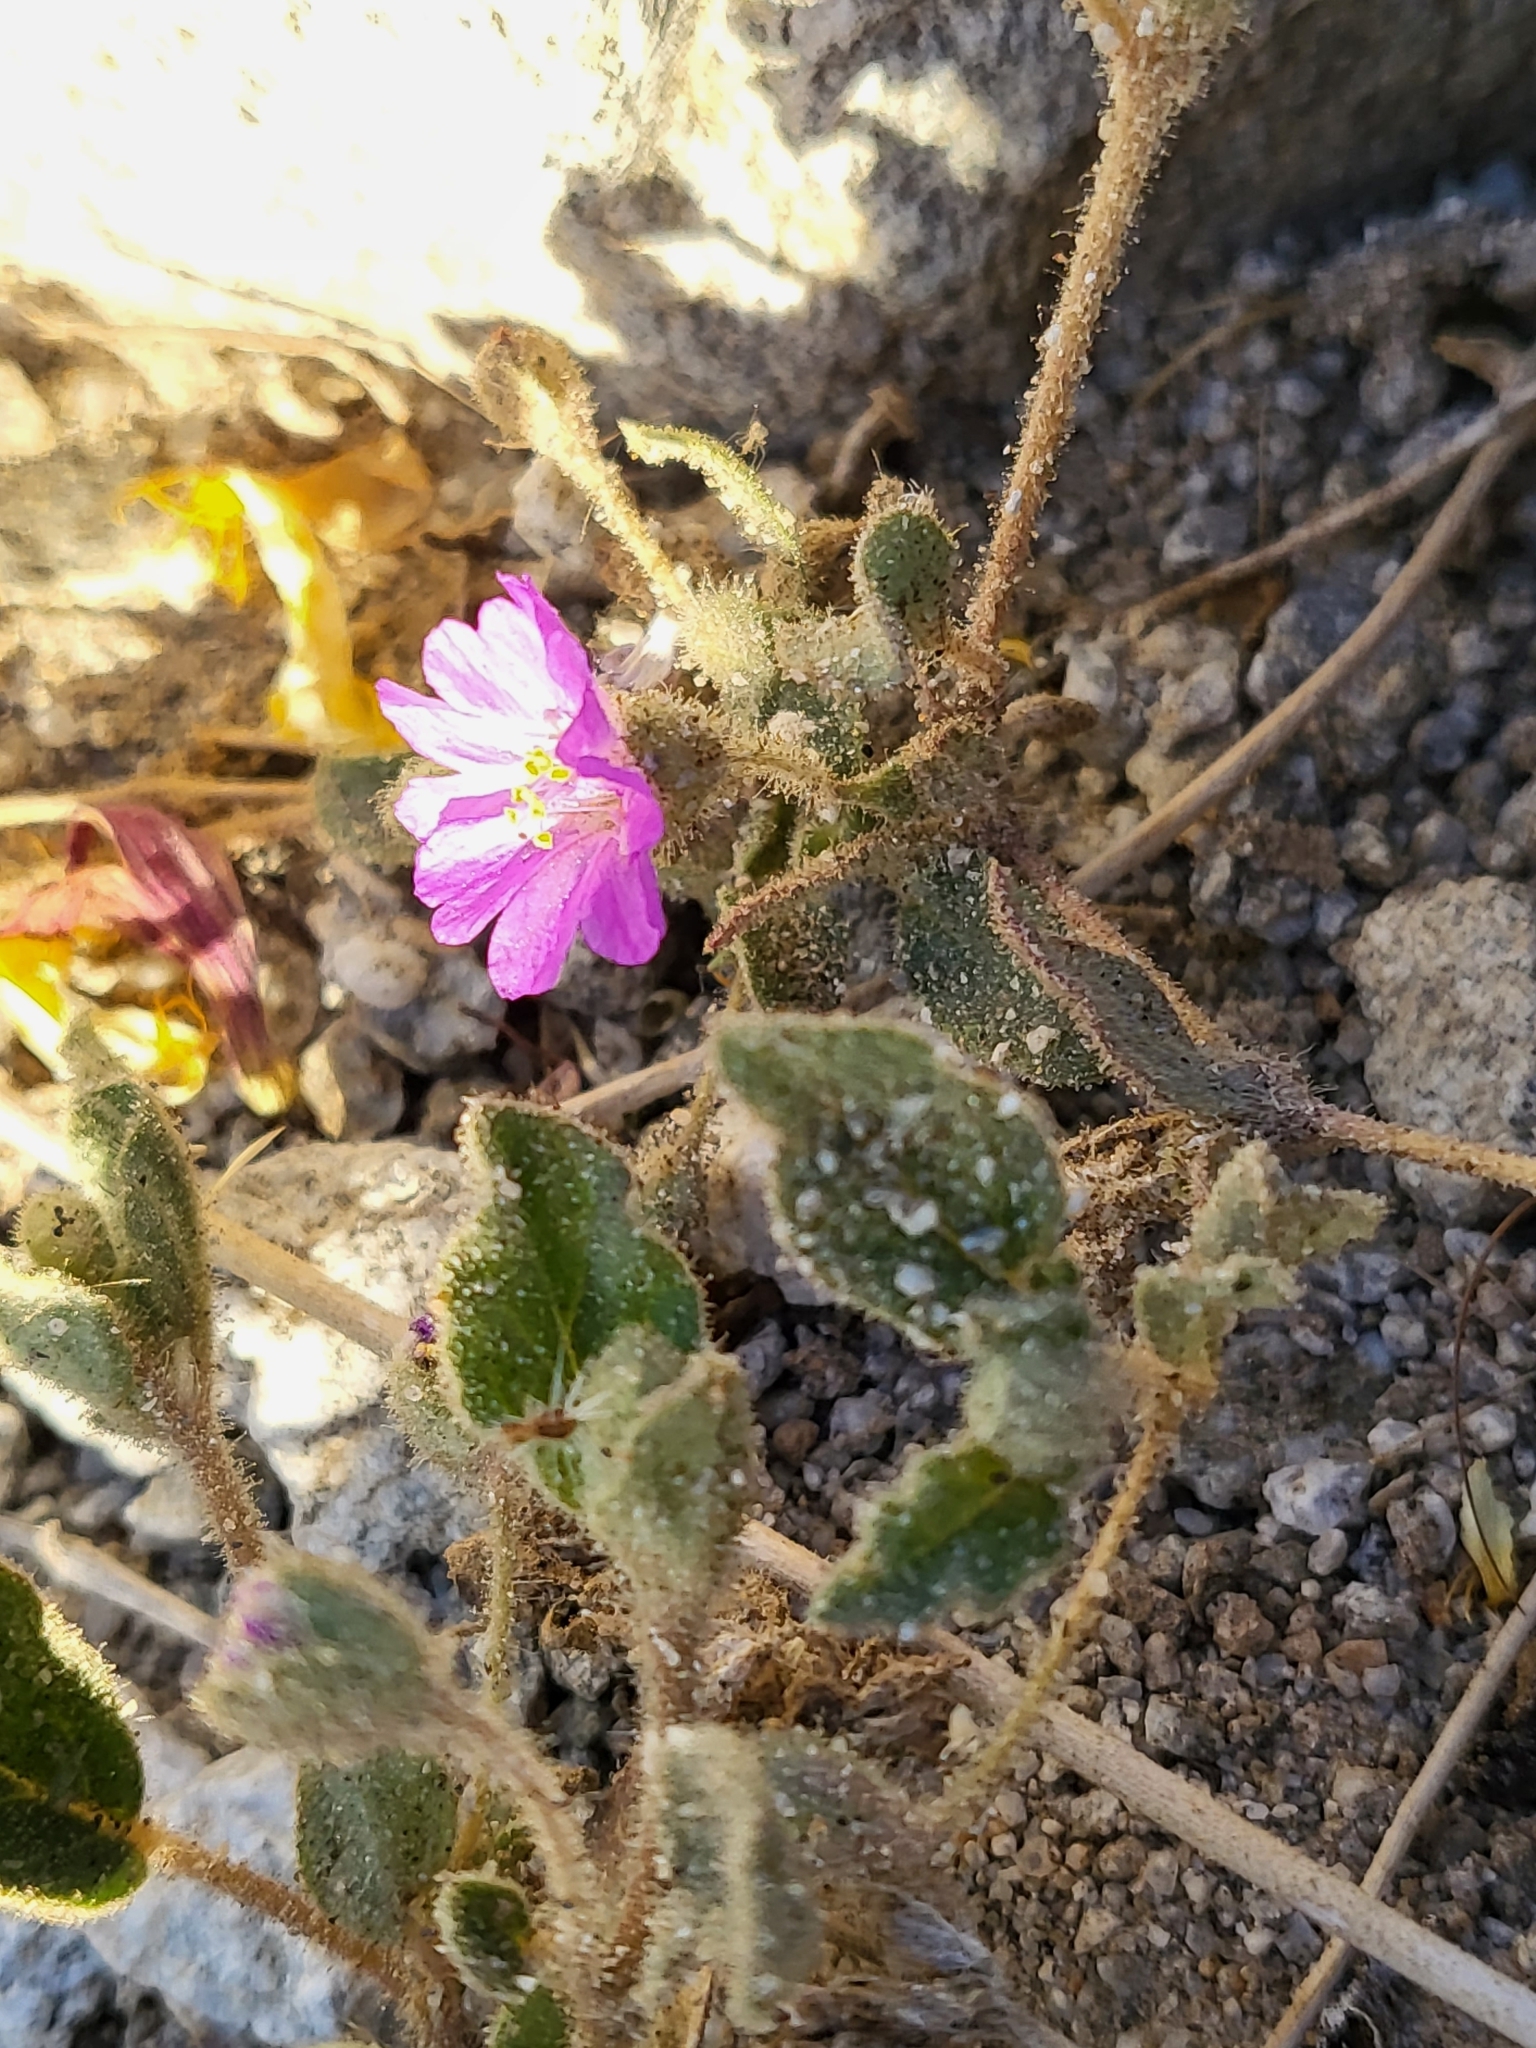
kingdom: Plantae
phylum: Tracheophyta
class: Magnoliopsida
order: Caryophyllales
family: Nyctaginaceae
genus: Allionia
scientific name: Allionia incarnata
